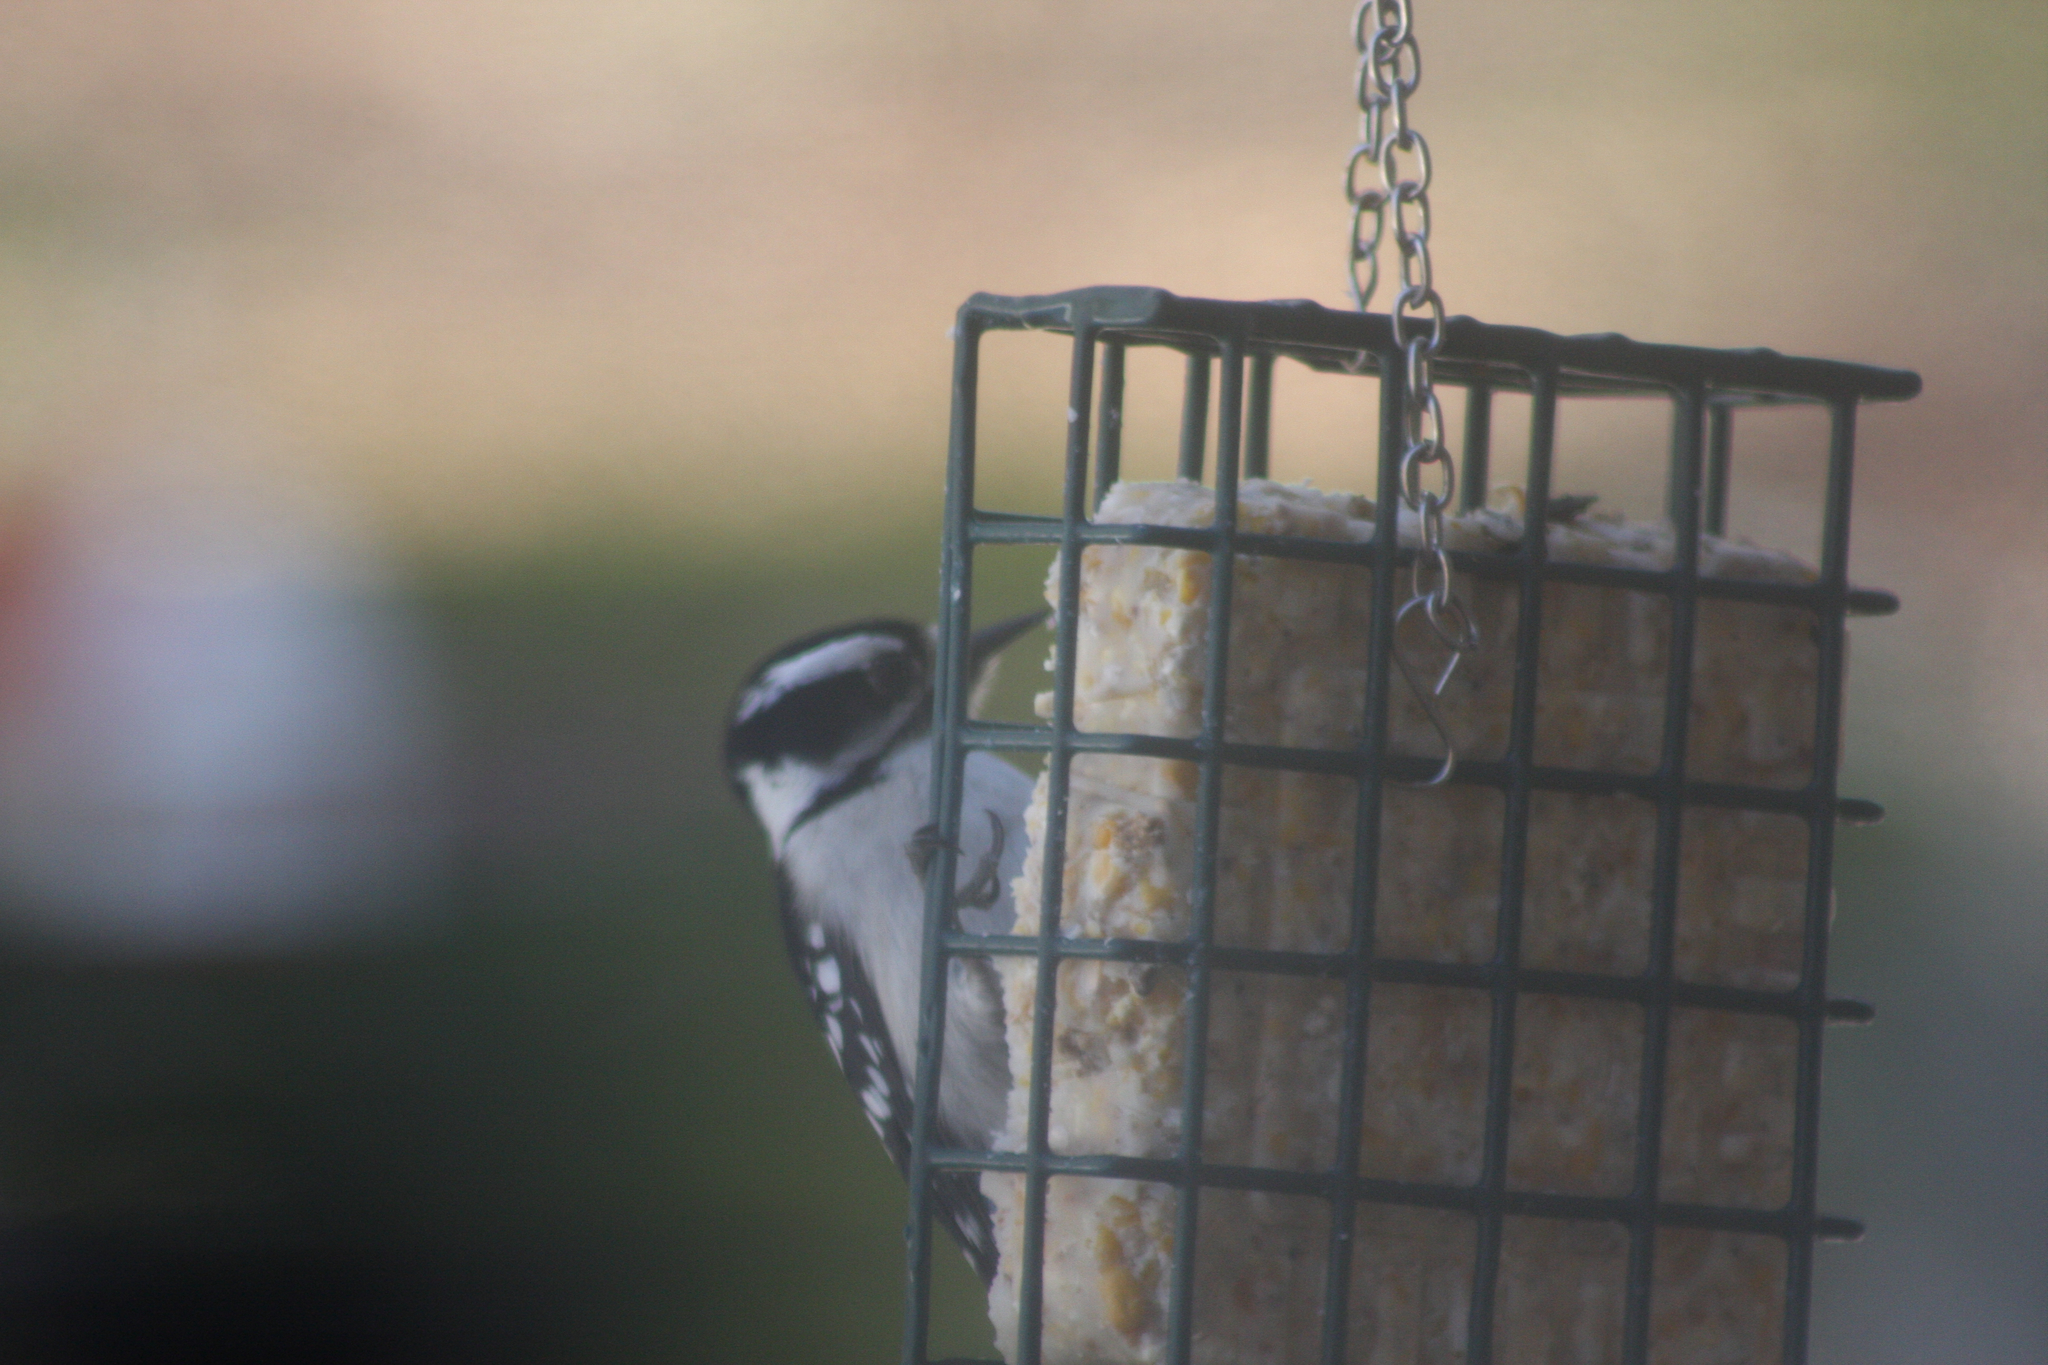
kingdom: Animalia
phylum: Chordata
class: Aves
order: Piciformes
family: Picidae
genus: Dryobates
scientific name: Dryobates pubescens
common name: Downy woodpecker
